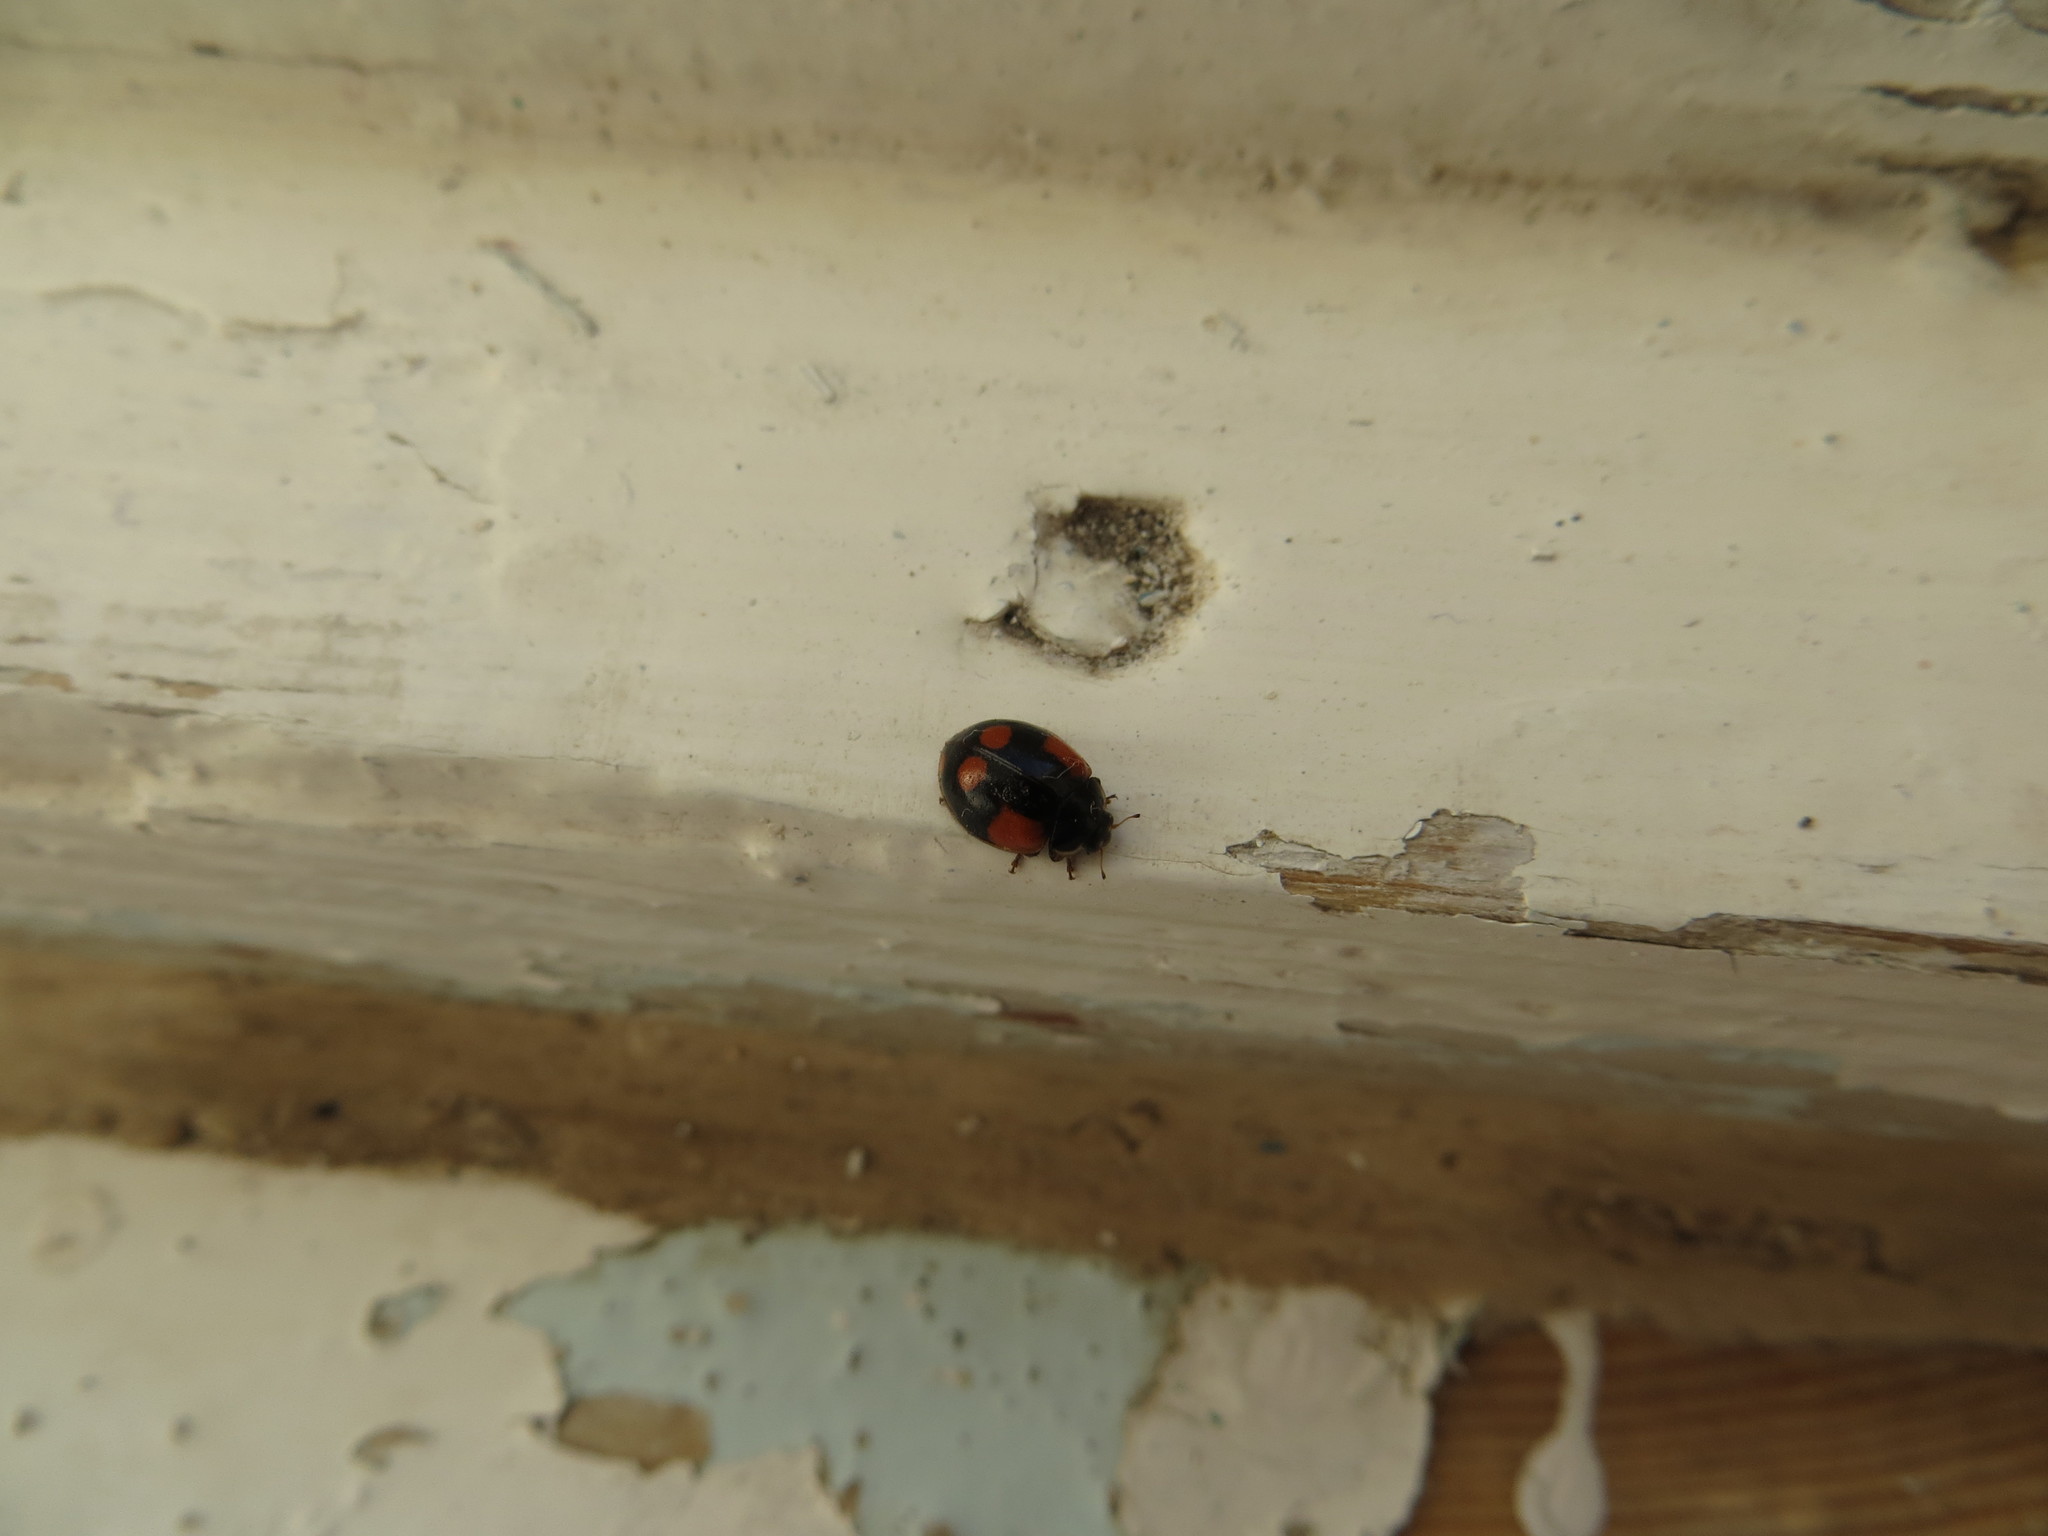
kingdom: Animalia
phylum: Arthropoda
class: Insecta
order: Coleoptera
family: Coccinellidae
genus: Adalia
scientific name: Adalia bipunctata
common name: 2-spot ladybird
